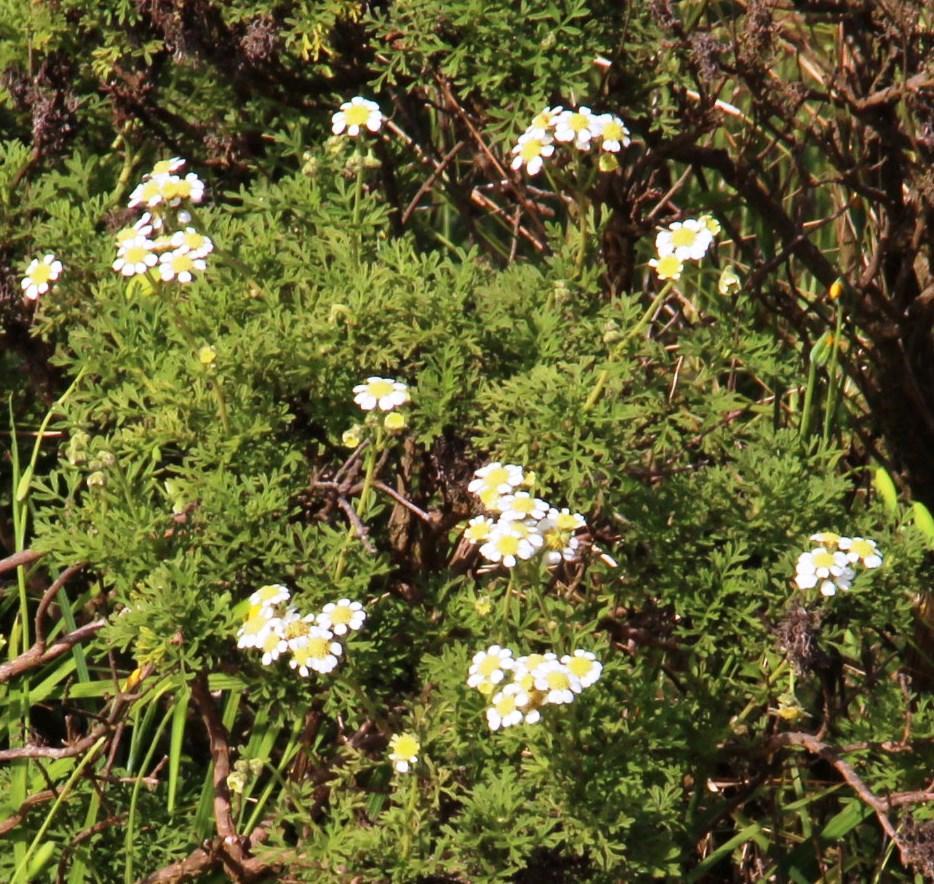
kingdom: Plantae
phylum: Tracheophyta
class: Magnoliopsida
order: Asterales
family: Asteraceae
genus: Bahia
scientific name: Bahia ambrosioides
